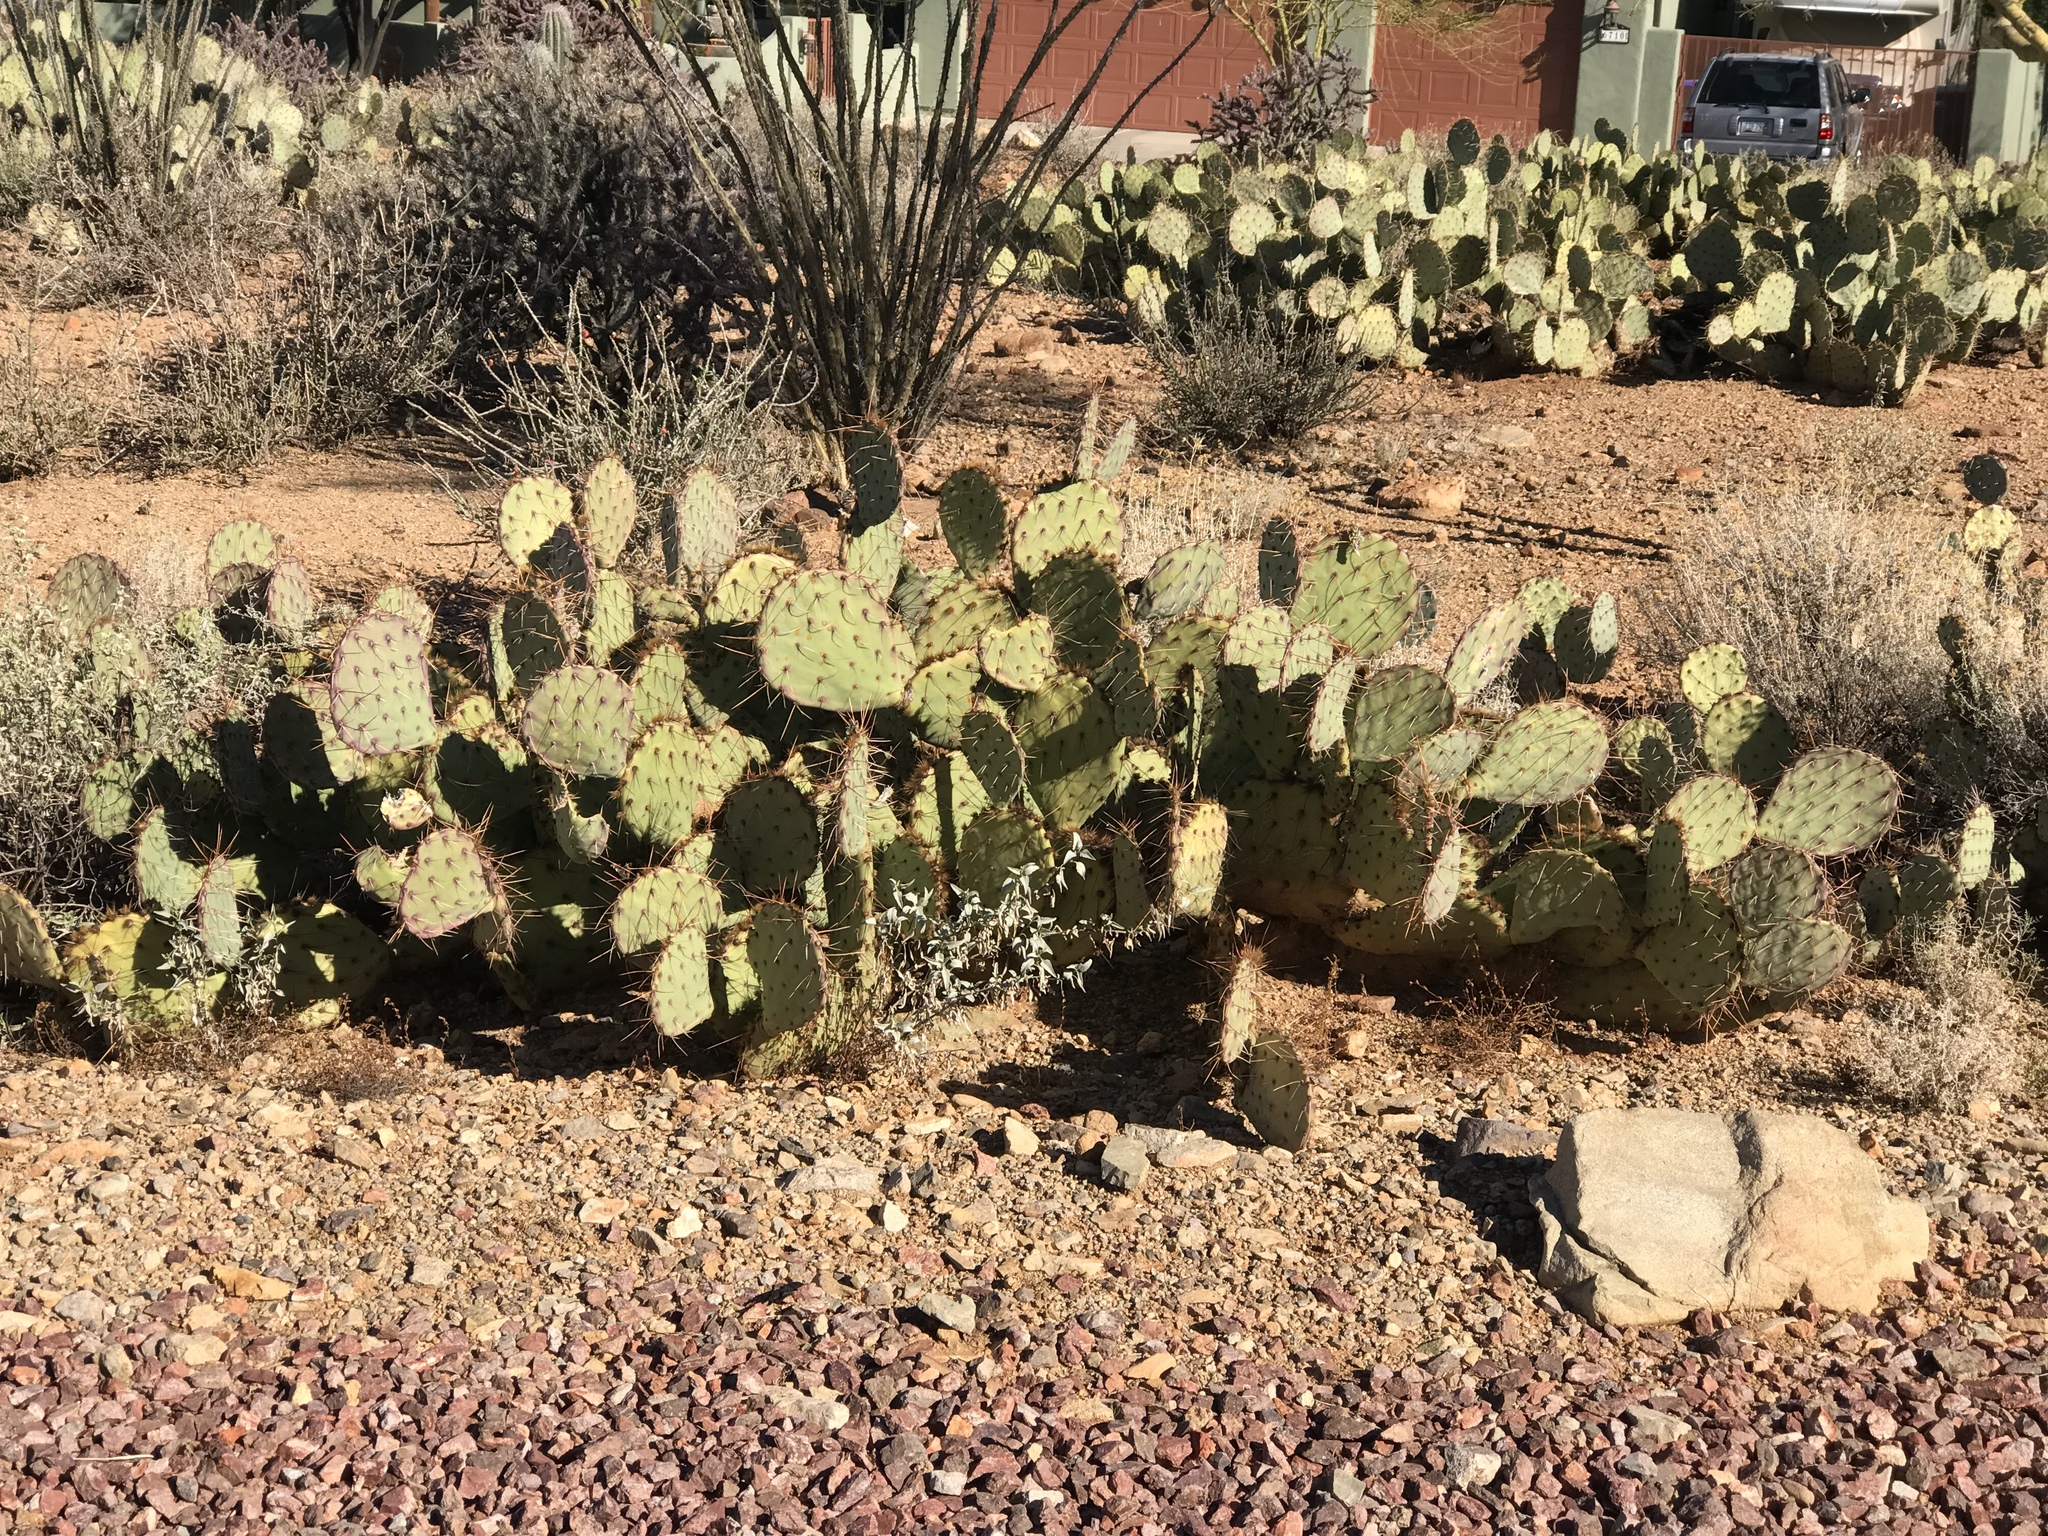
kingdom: Plantae
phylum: Tracheophyta
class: Magnoliopsida
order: Caryophyllales
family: Cactaceae
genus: Opuntia
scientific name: Opuntia phaeacantha
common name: New mexico prickly-pear
